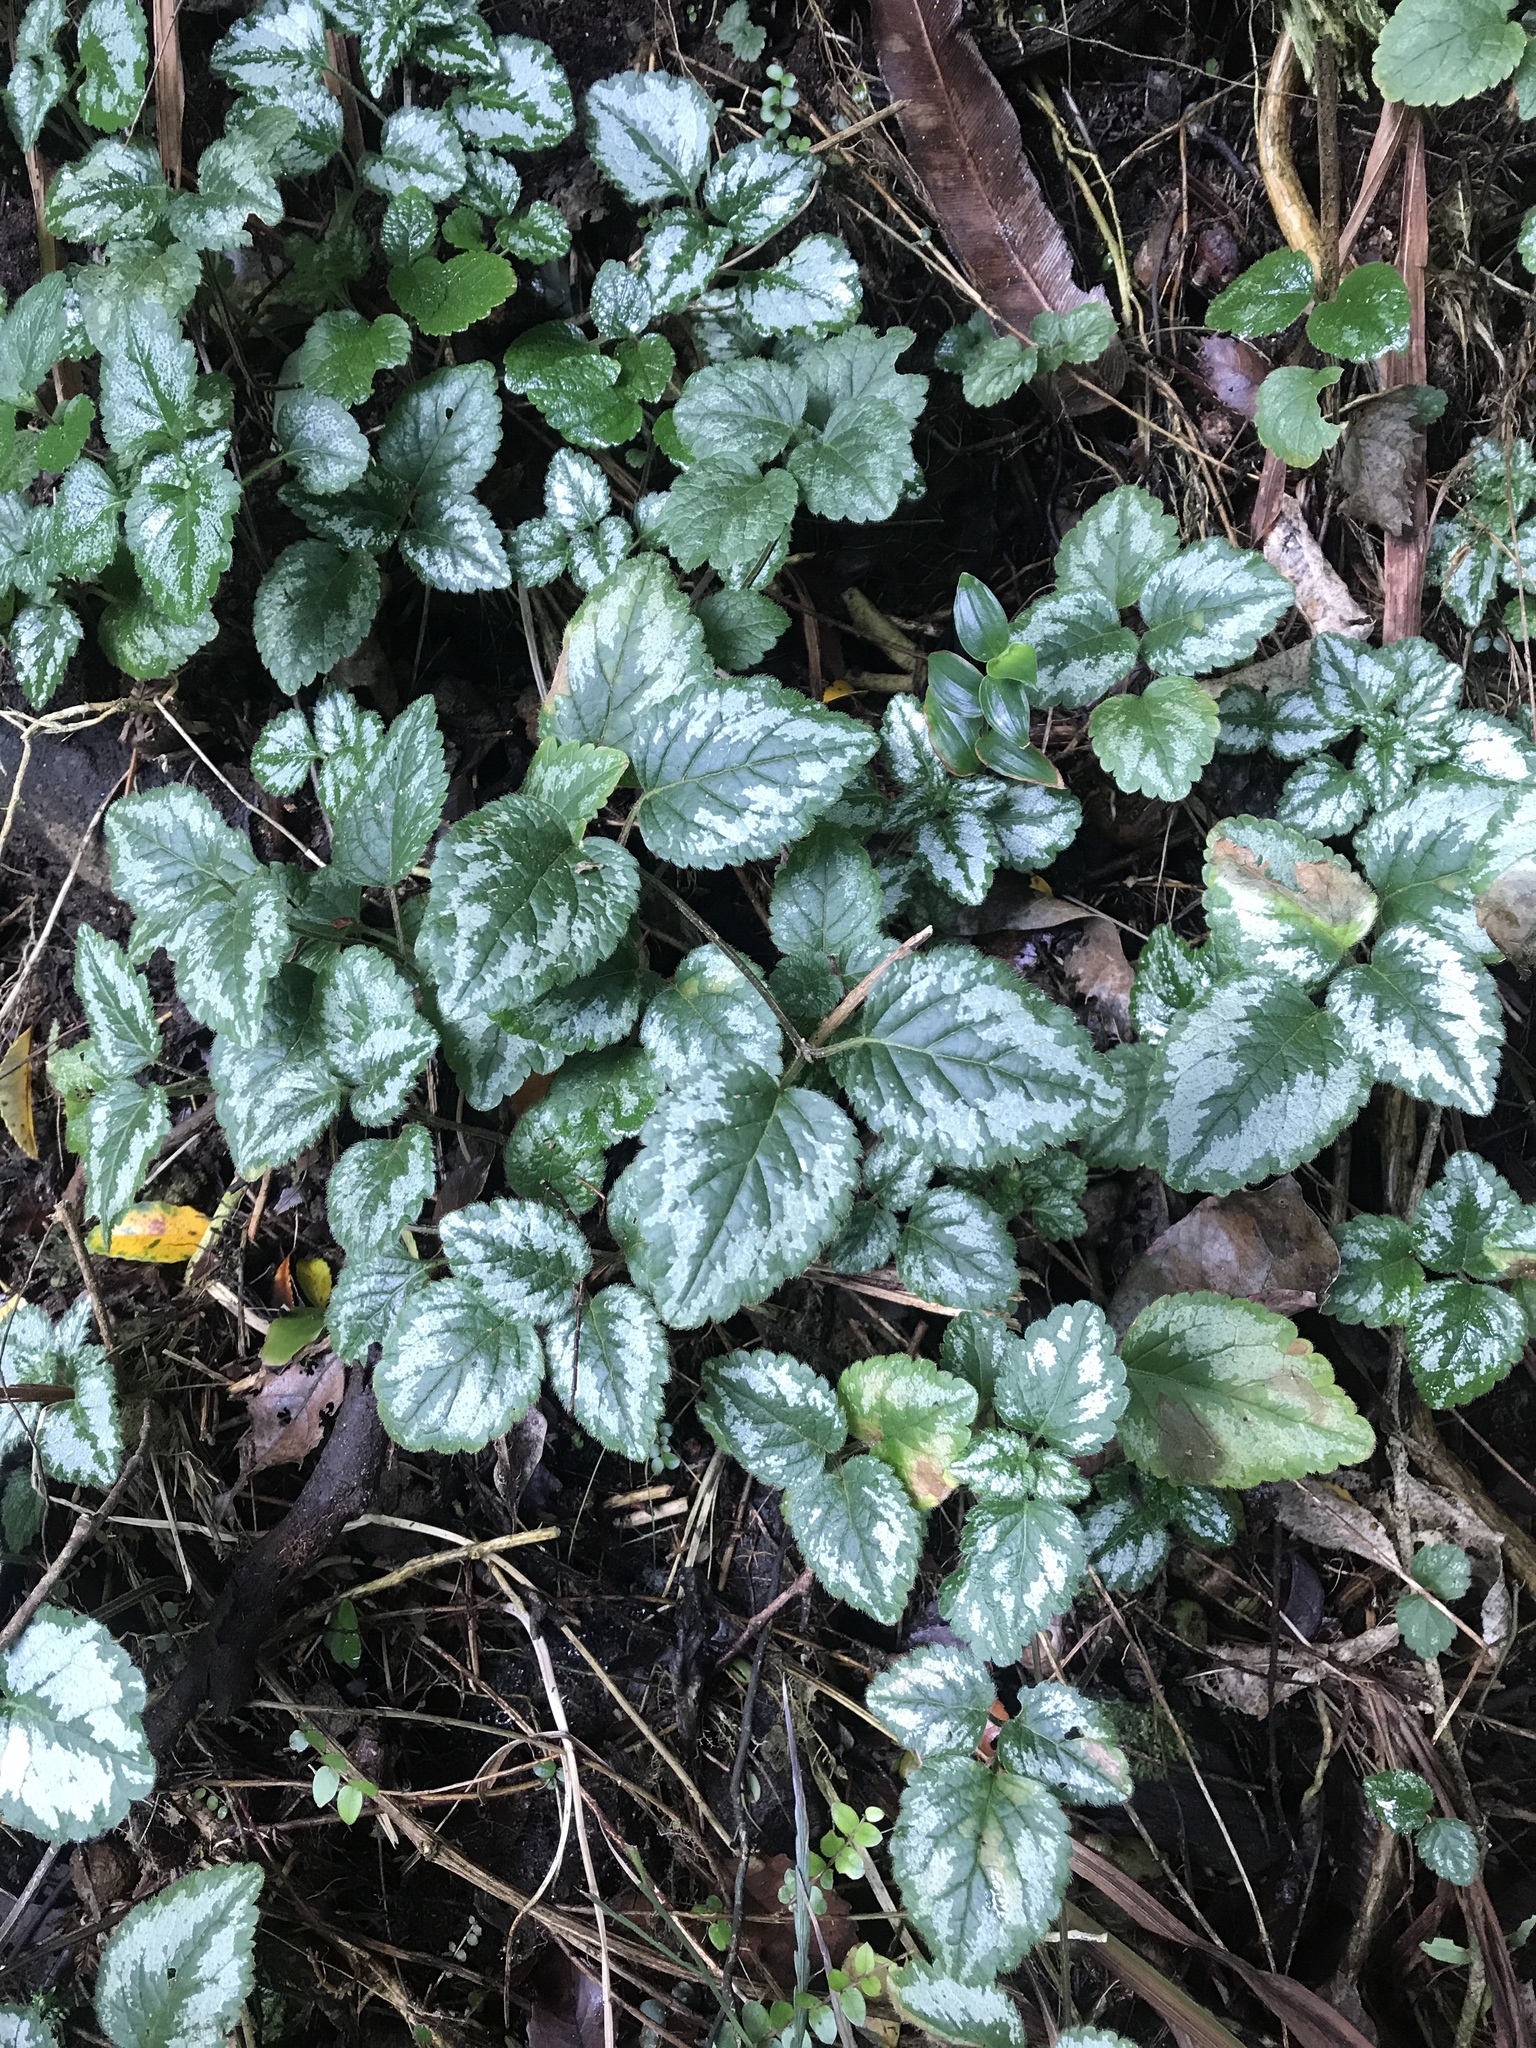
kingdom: Plantae
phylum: Tracheophyta
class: Magnoliopsida
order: Lamiales
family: Lamiaceae
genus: Lamium
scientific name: Lamium galeobdolon
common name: Yellow archangel
